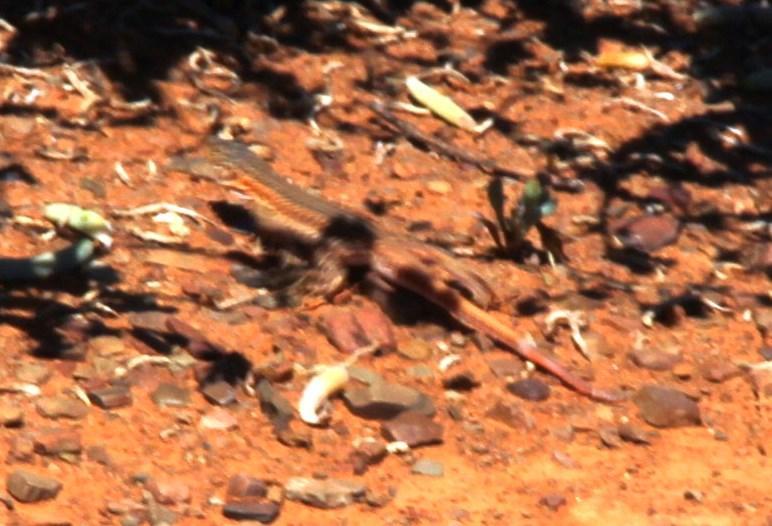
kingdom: Animalia
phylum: Chordata
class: Squamata
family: Lacertidae
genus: Pedioplanis
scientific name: Pedioplanis laticeps
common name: Karoo sand lizard
